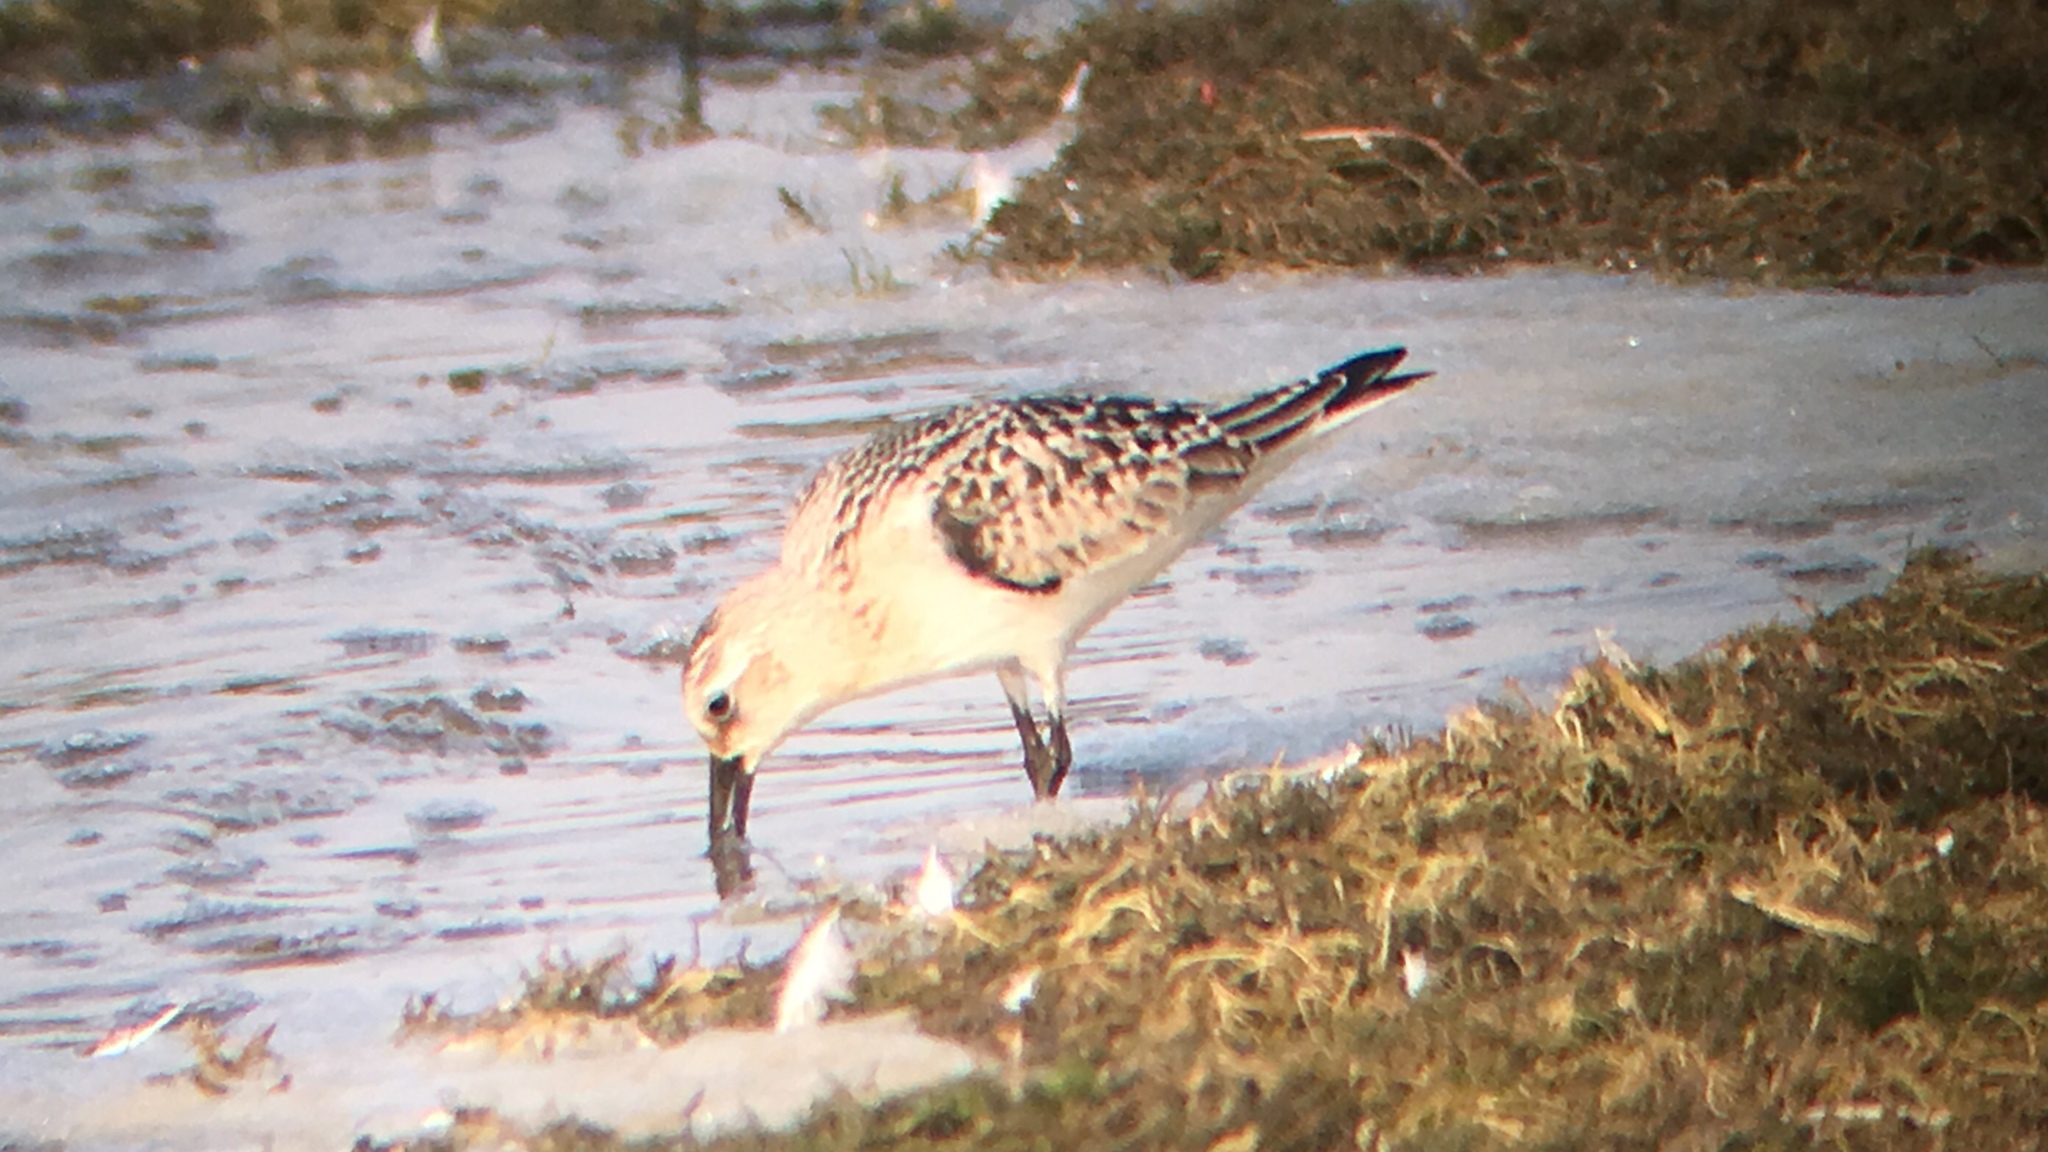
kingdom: Animalia
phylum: Chordata
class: Aves
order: Charadriiformes
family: Scolopacidae
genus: Calidris
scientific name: Calidris alba
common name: Sanderling
